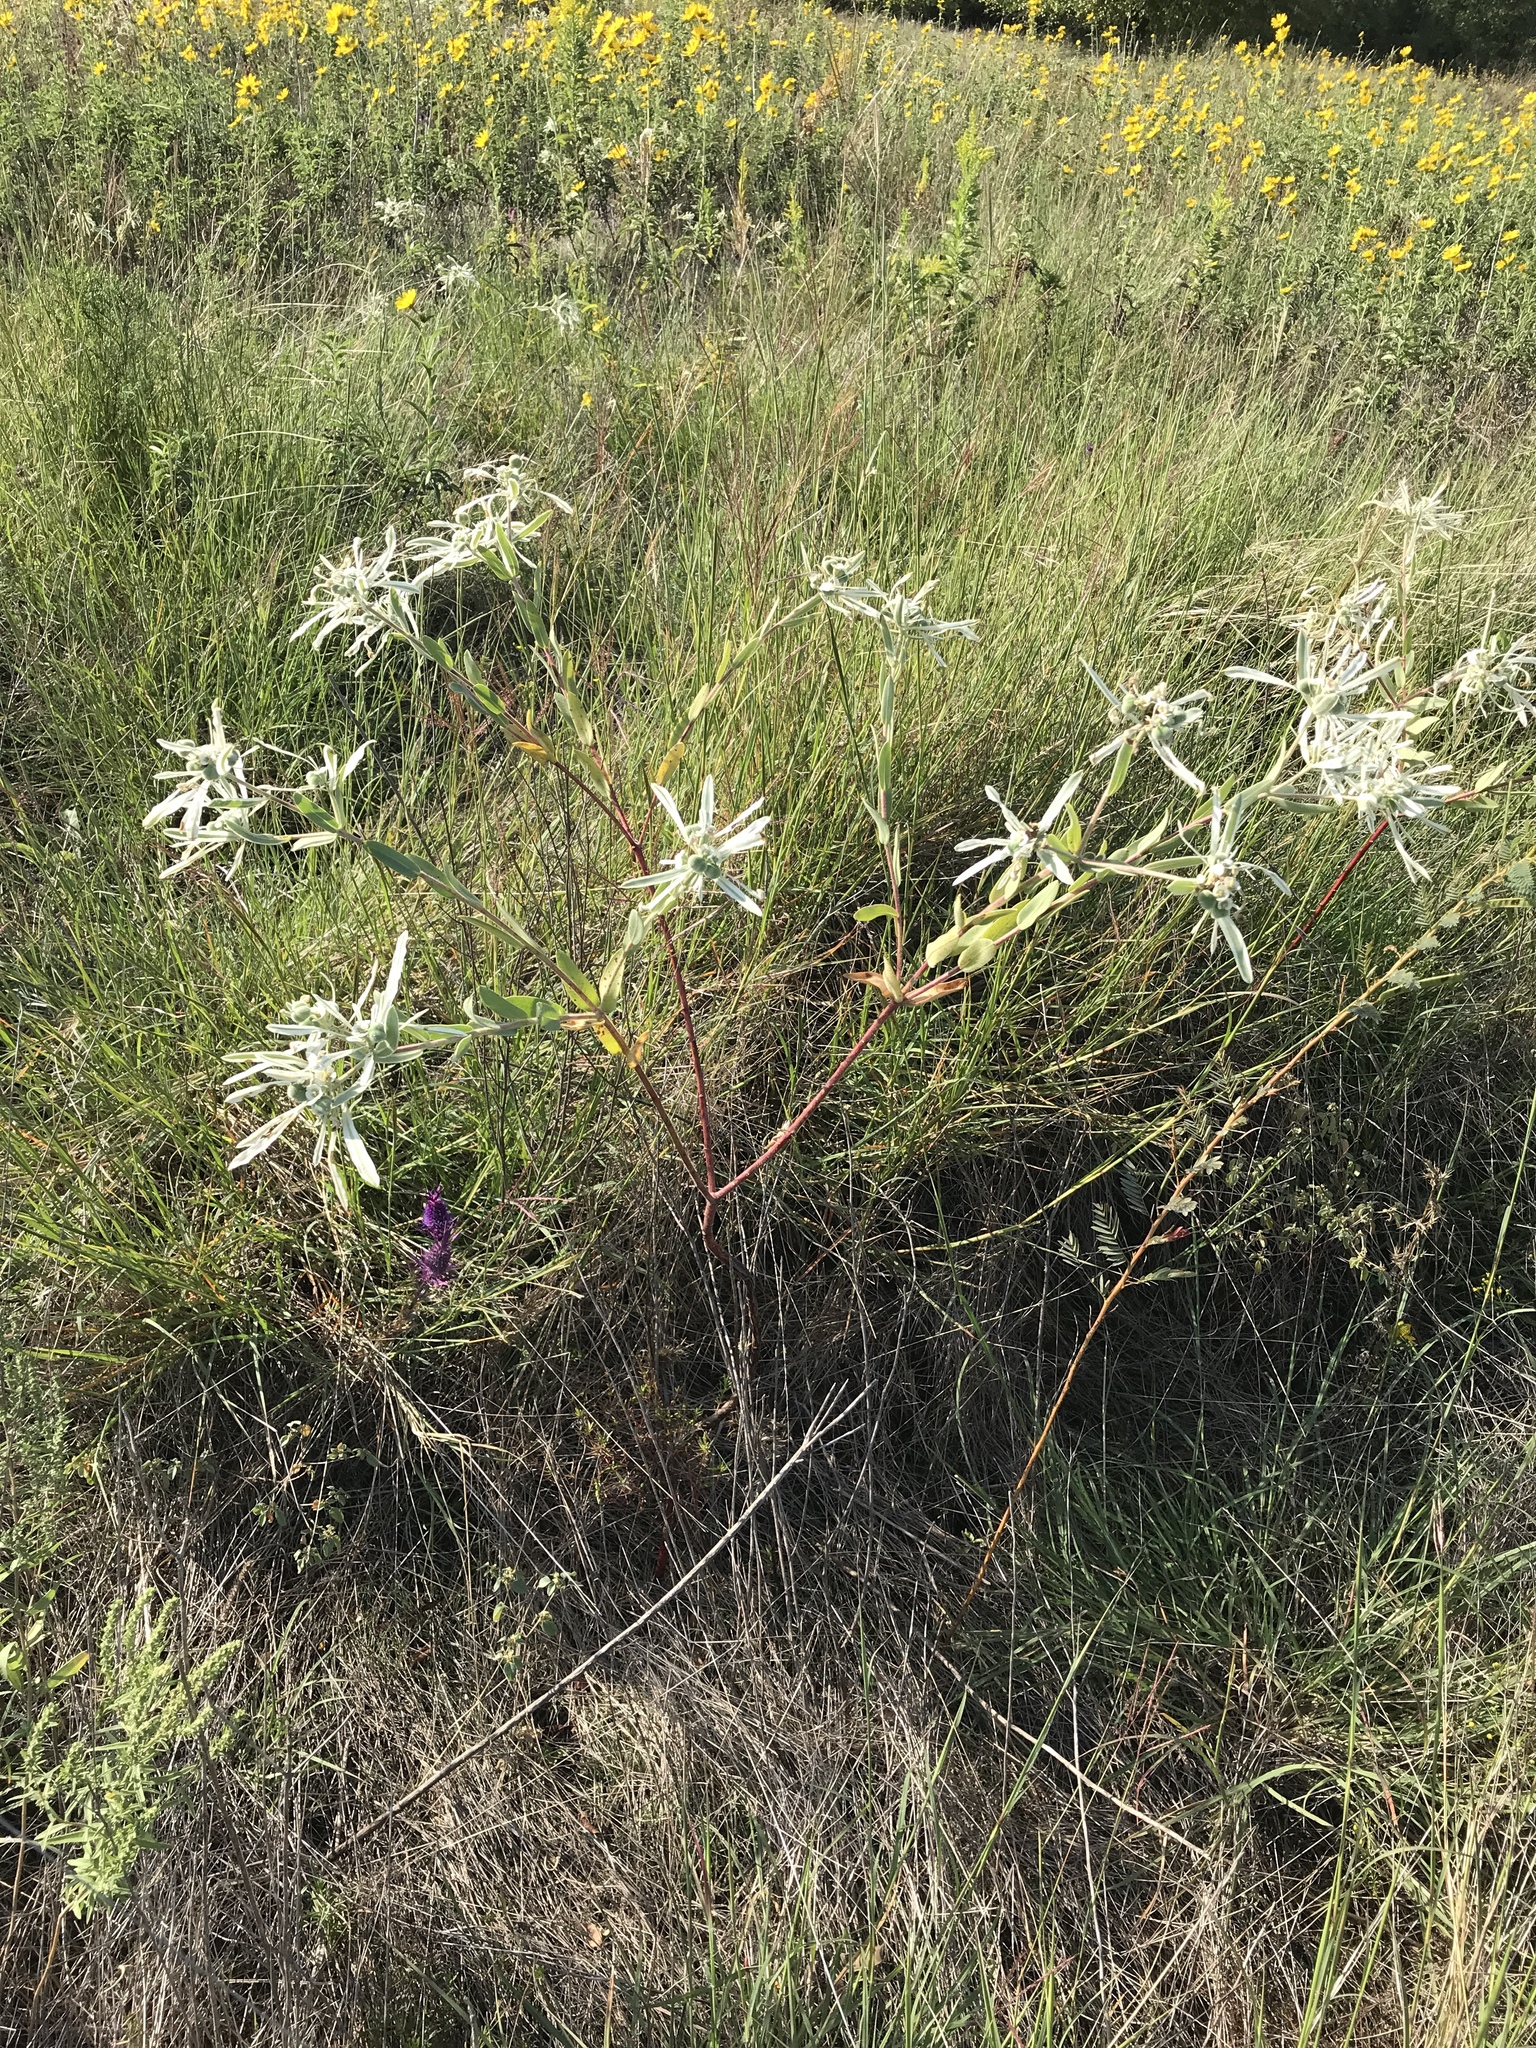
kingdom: Plantae
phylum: Tracheophyta
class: Magnoliopsida
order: Malpighiales
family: Euphorbiaceae
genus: Euphorbia
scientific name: Euphorbia bicolor
